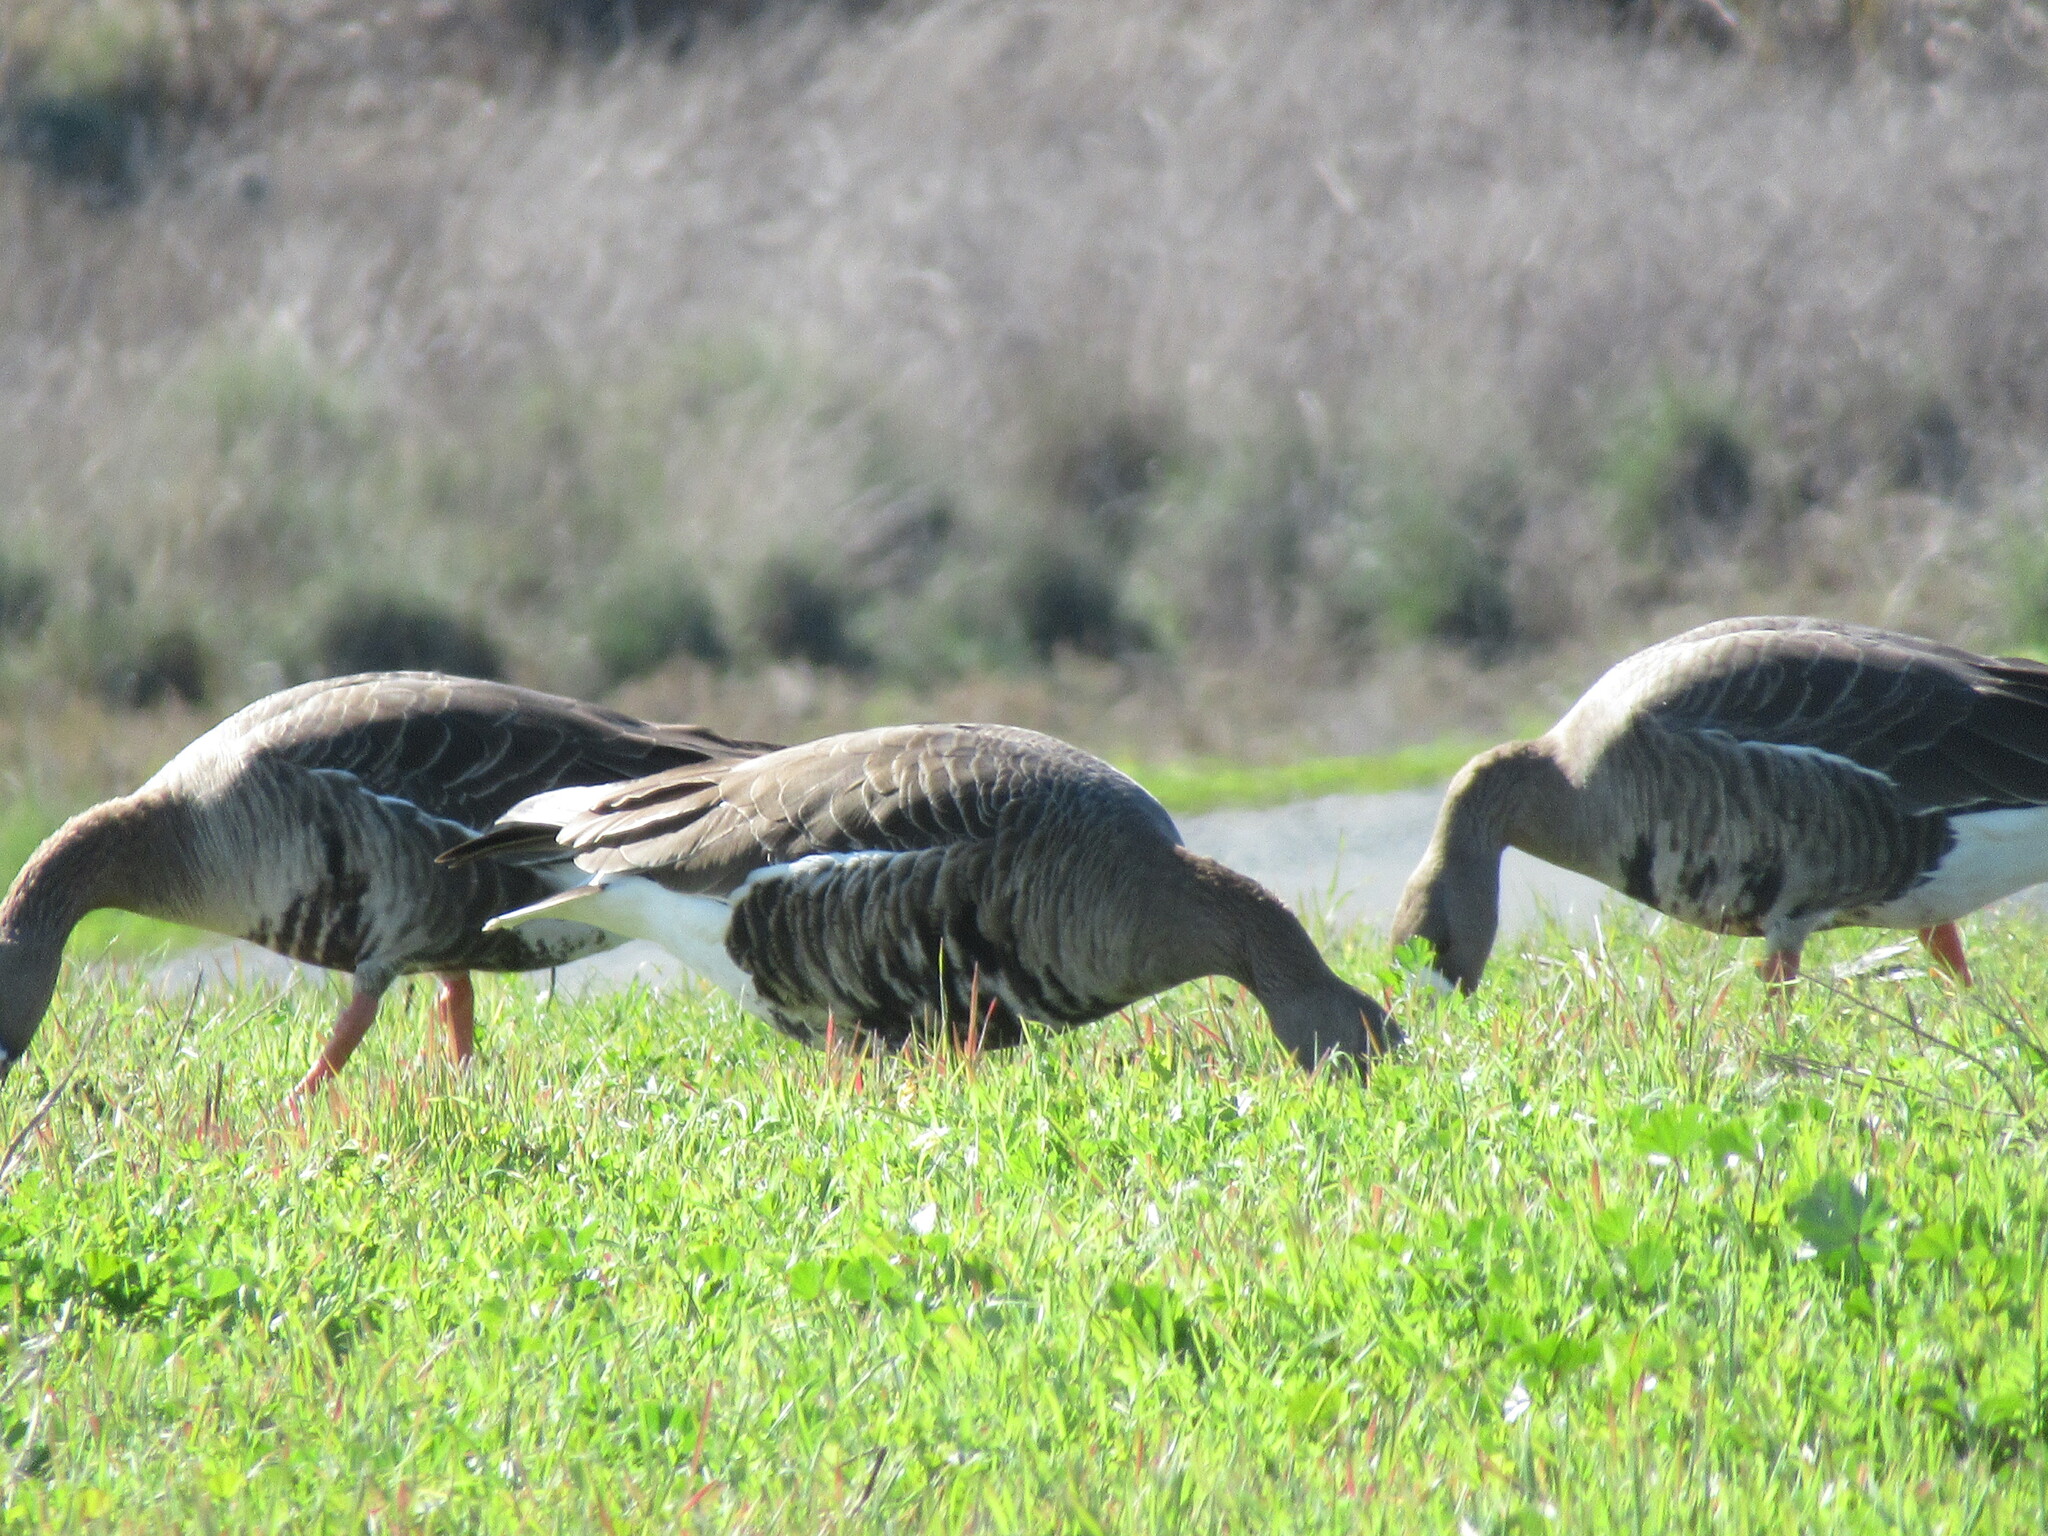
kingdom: Animalia
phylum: Chordata
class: Aves
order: Anseriformes
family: Anatidae
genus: Anser
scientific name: Anser albifrons
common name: Greater white-fronted goose
